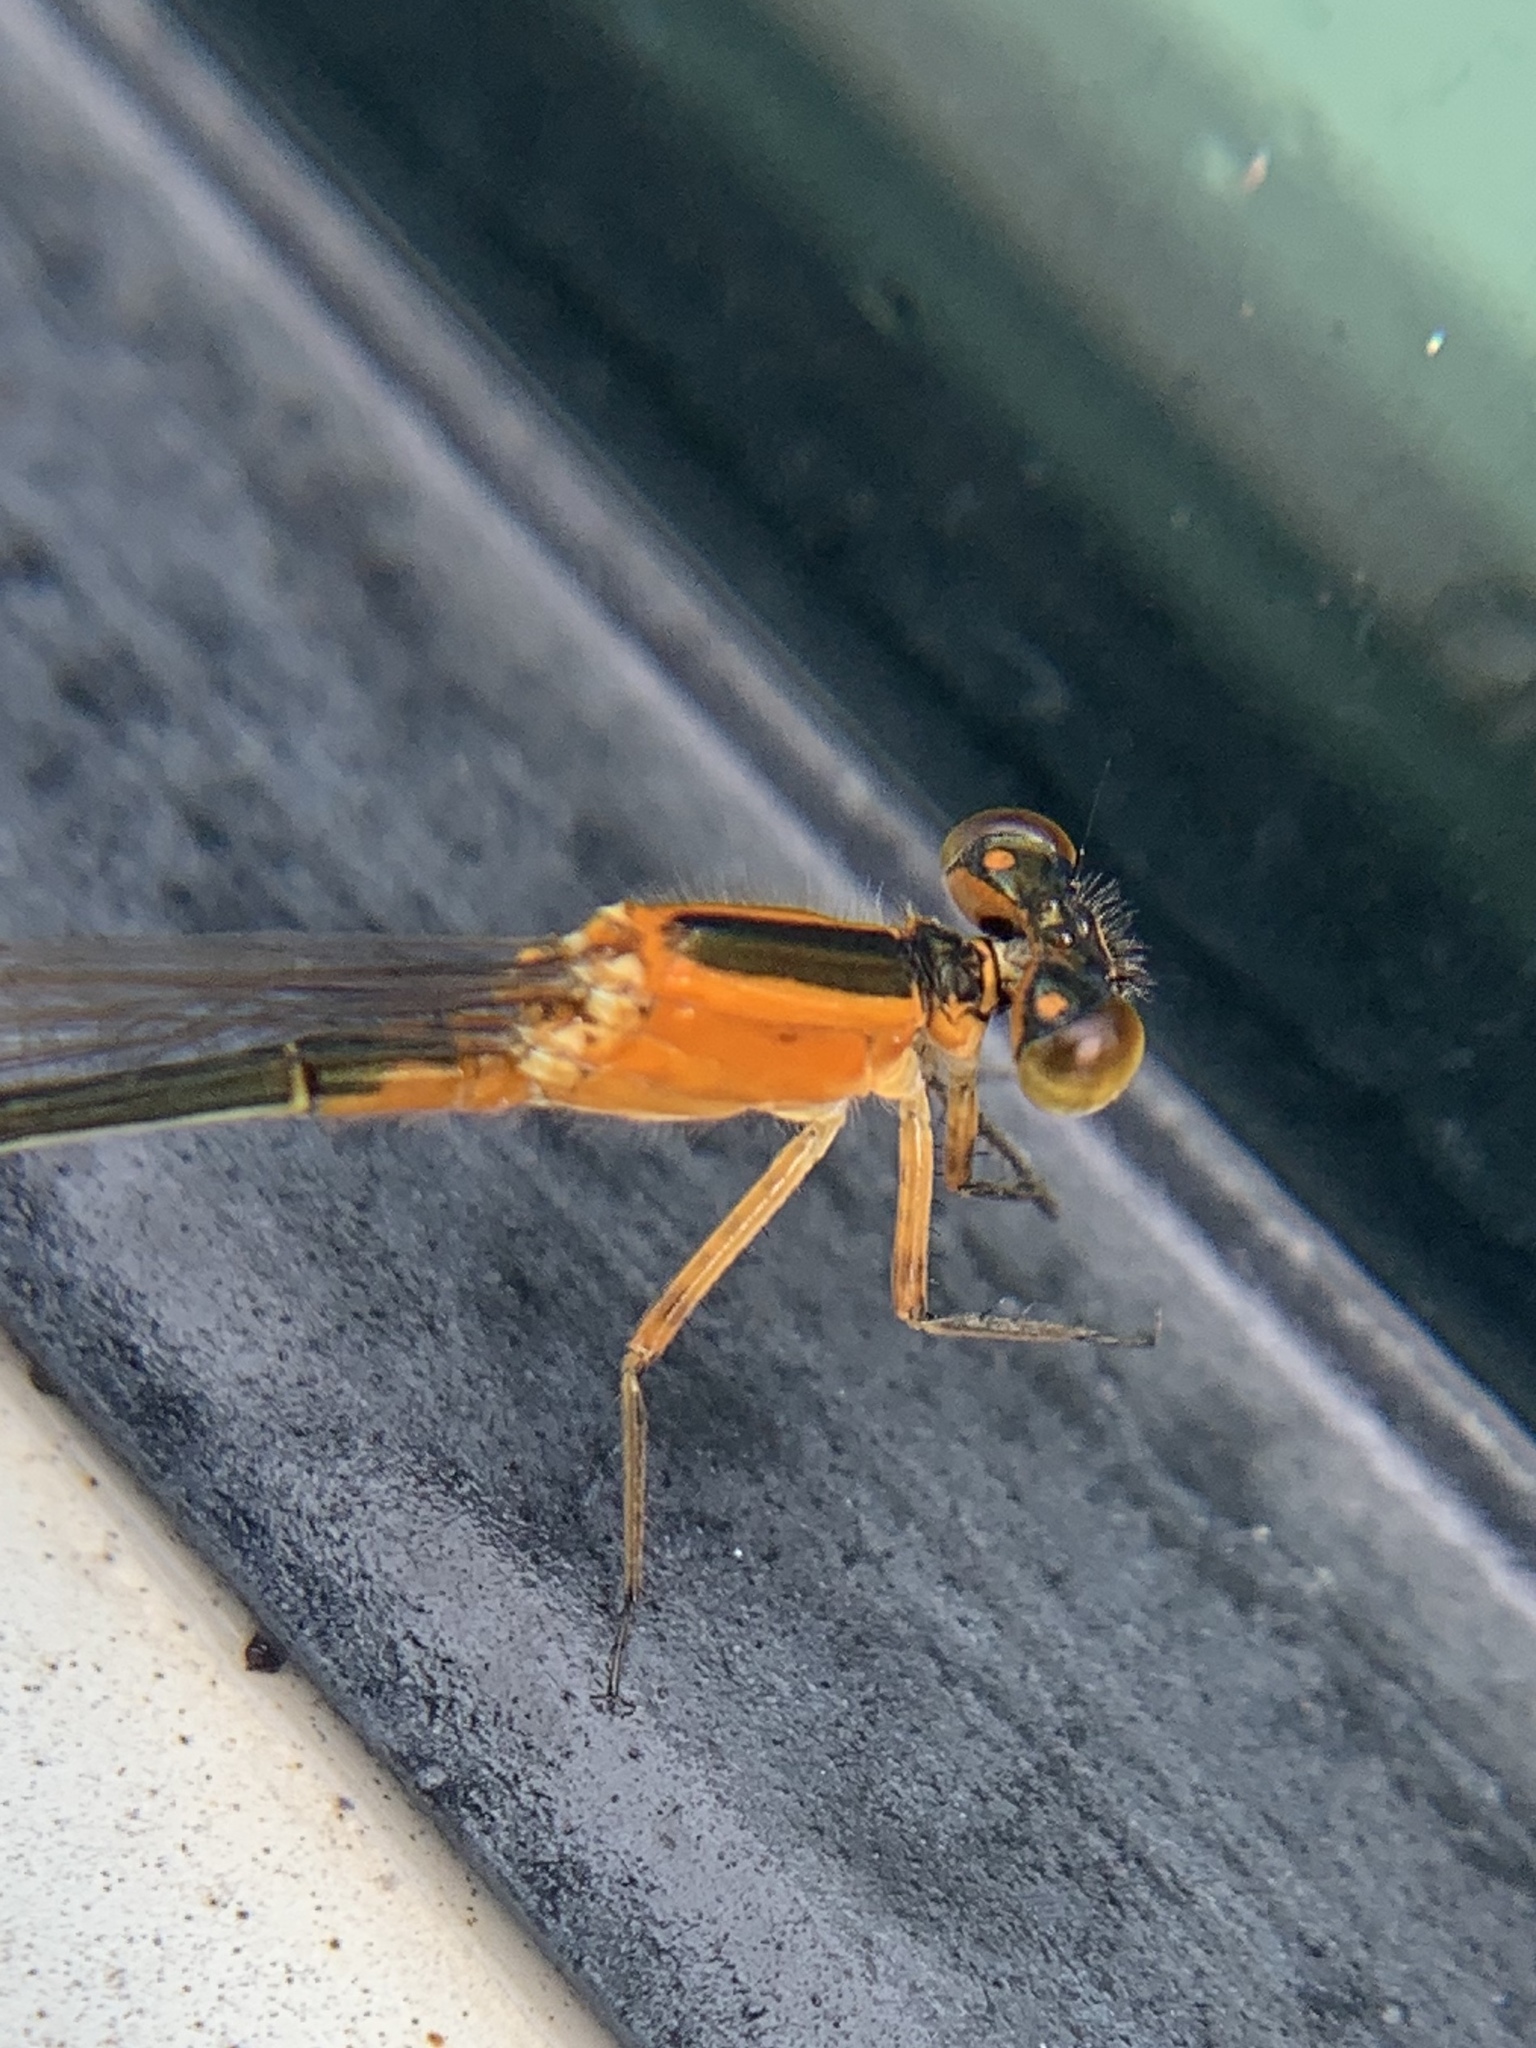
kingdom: Animalia
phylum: Arthropoda
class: Insecta
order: Odonata
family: Coenagrionidae
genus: Ischnura
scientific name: Ischnura ramburii
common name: Rambur's forktail
